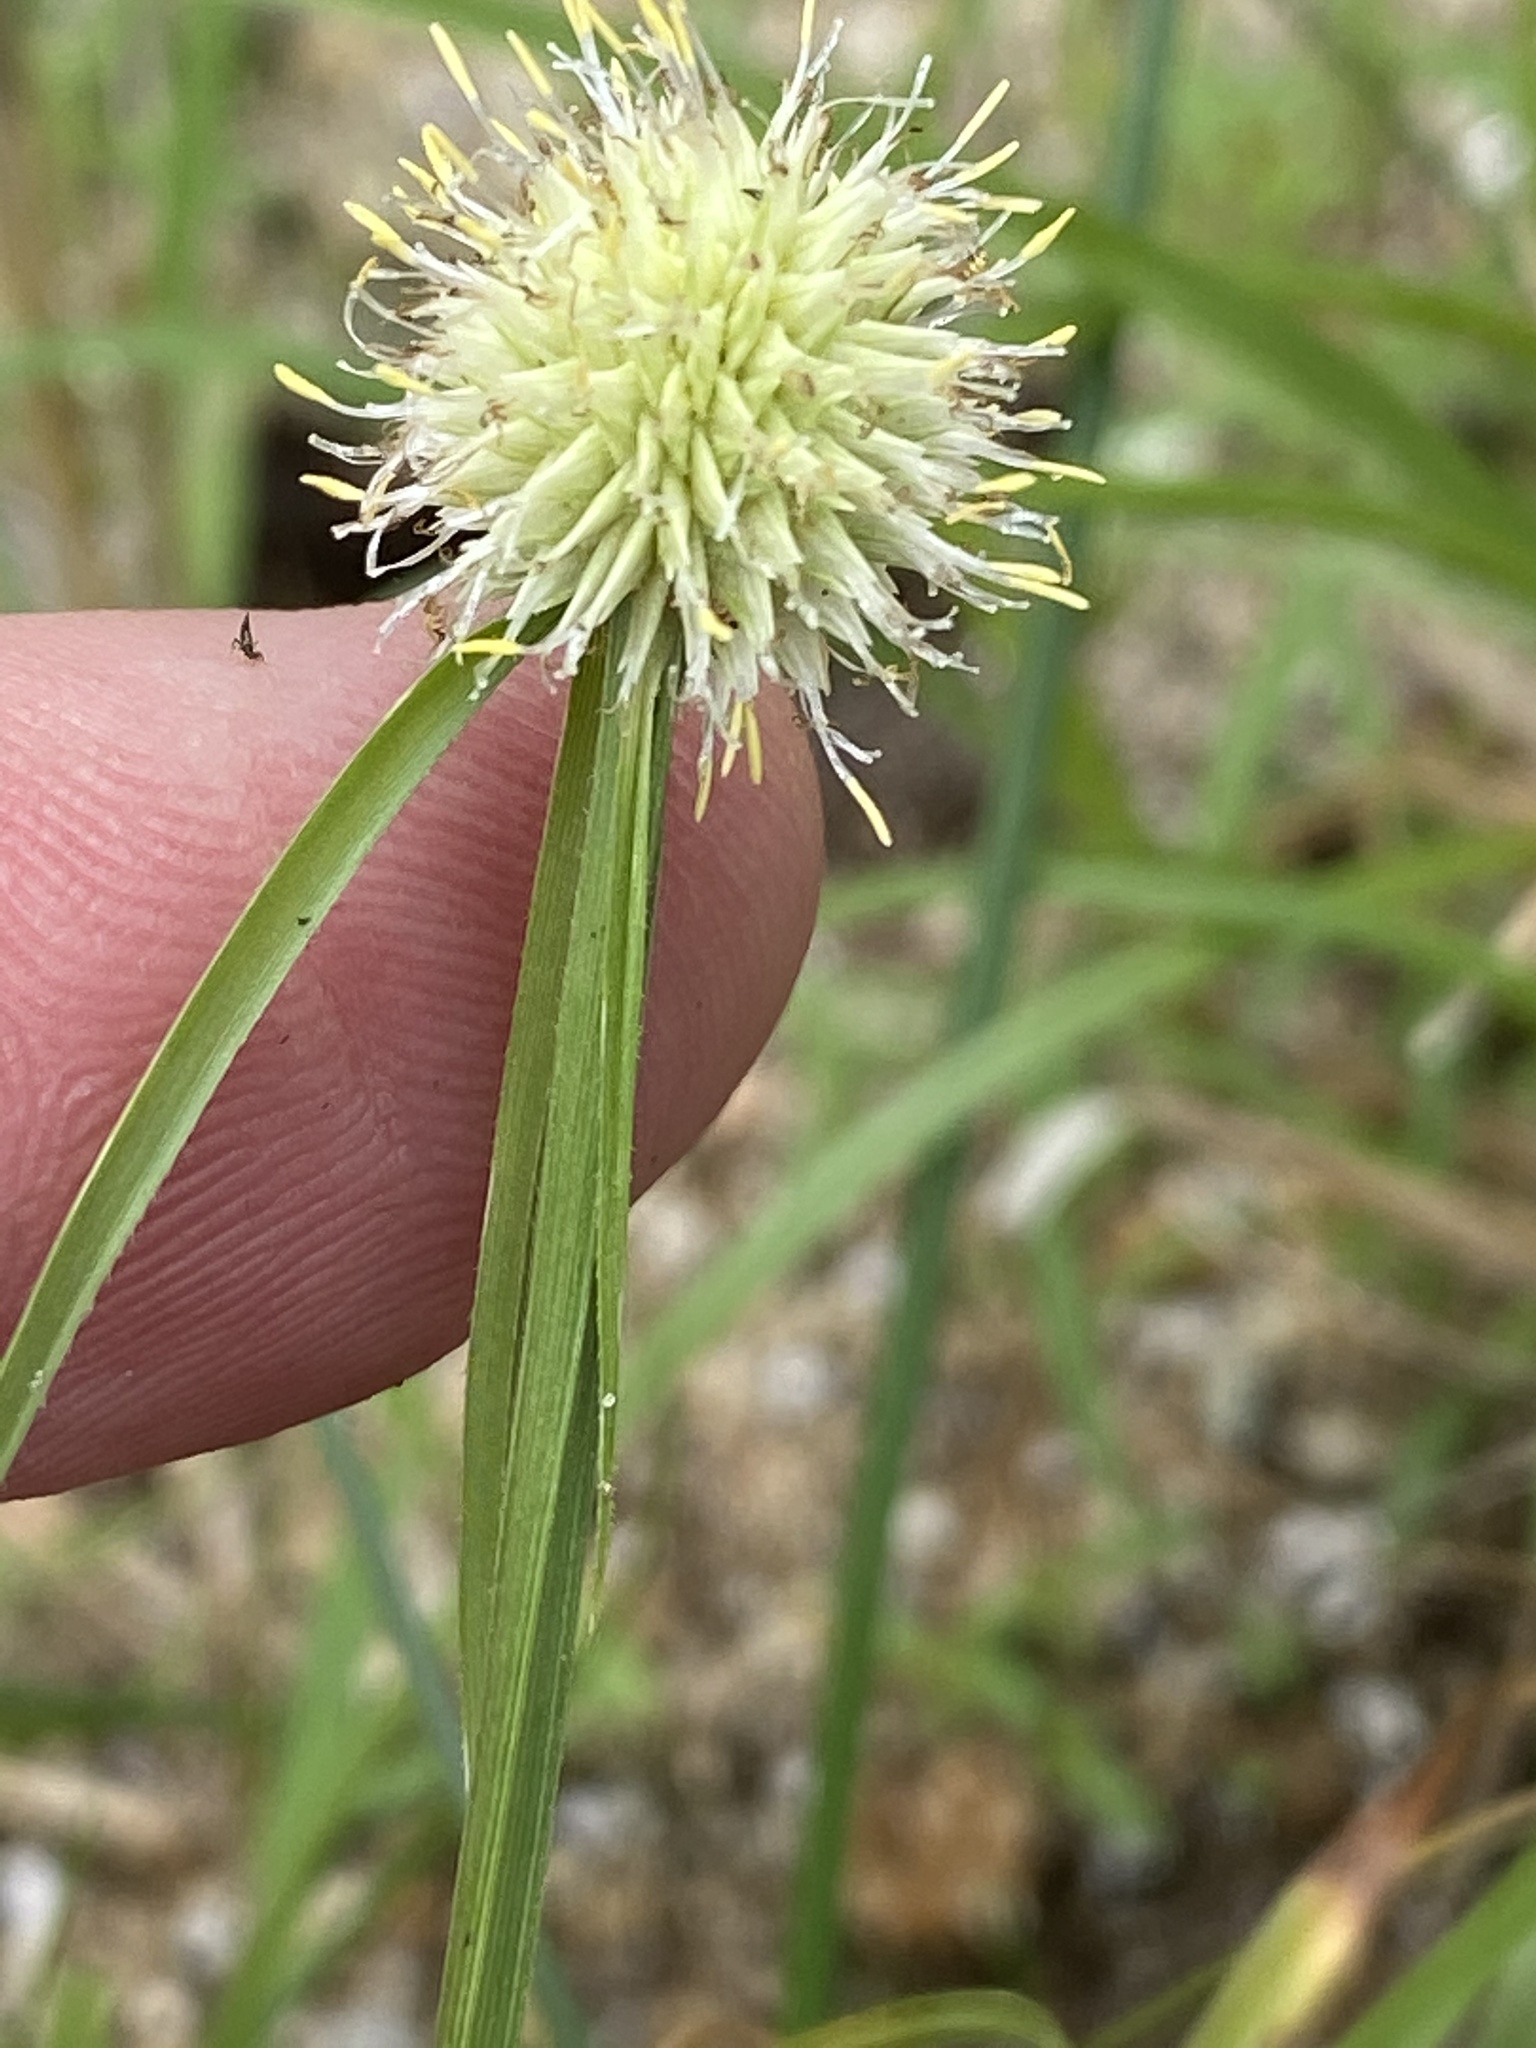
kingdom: Plantae
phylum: Tracheophyta
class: Liliopsida
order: Poales
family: Cyperaceae
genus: Cyperus
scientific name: Cyperus alatus
